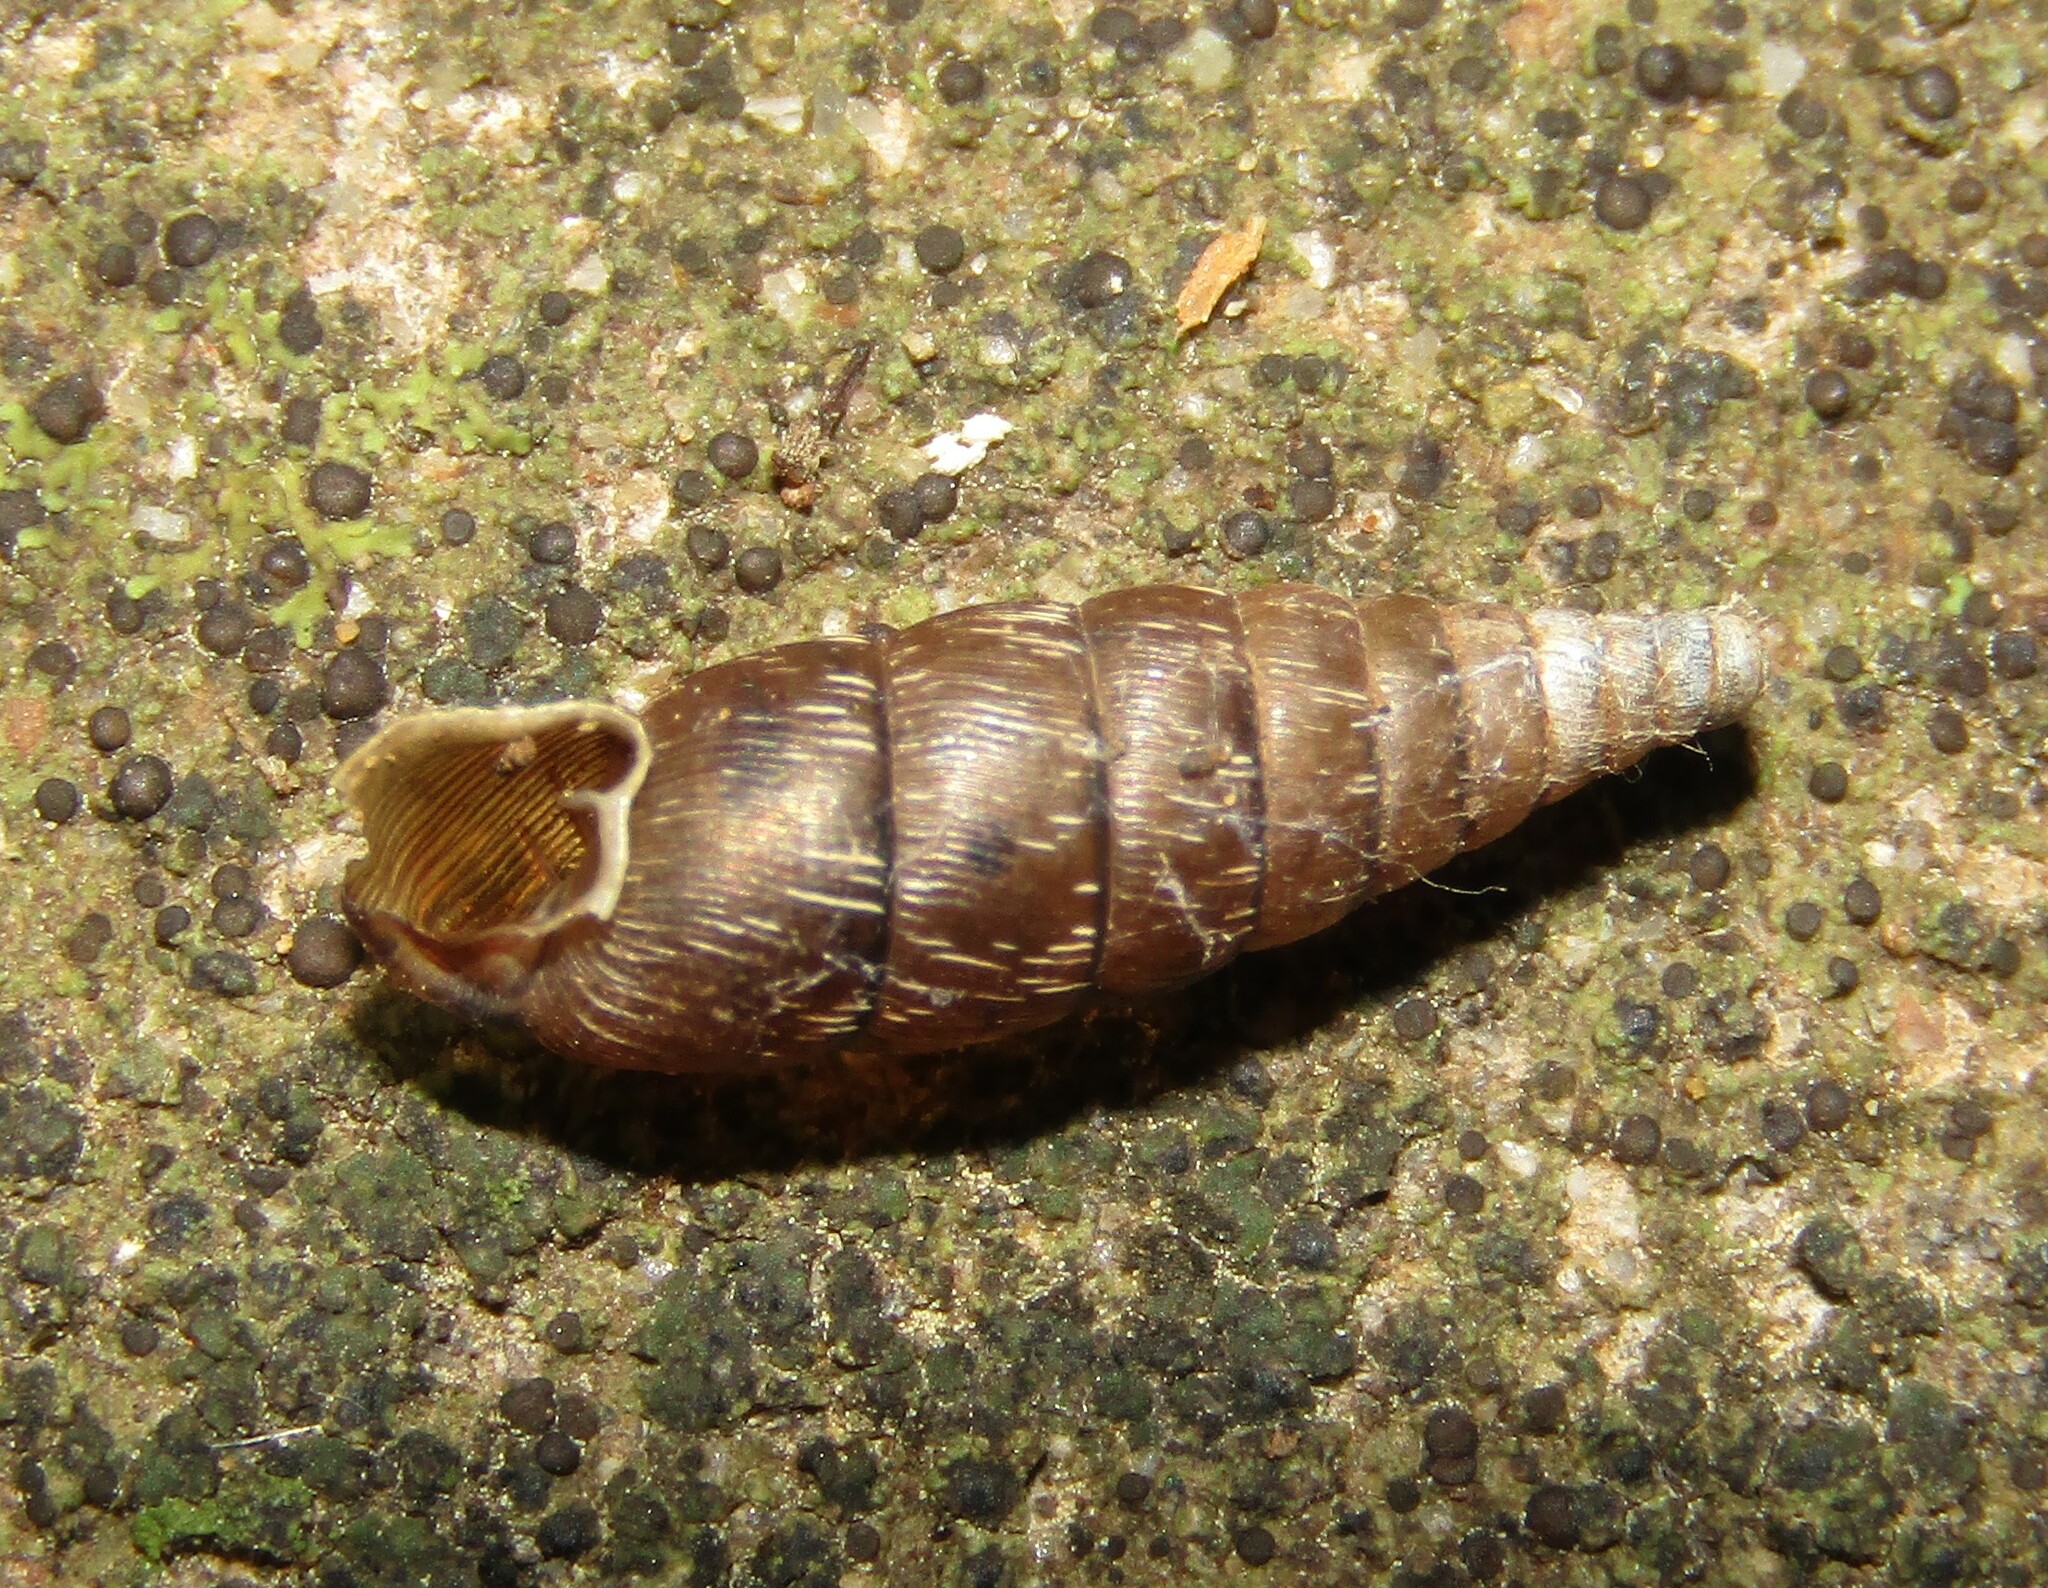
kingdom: Animalia
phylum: Mollusca
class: Gastropoda
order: Stylommatophora
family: Clausiliidae
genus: Elia
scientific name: Elia novorossica
